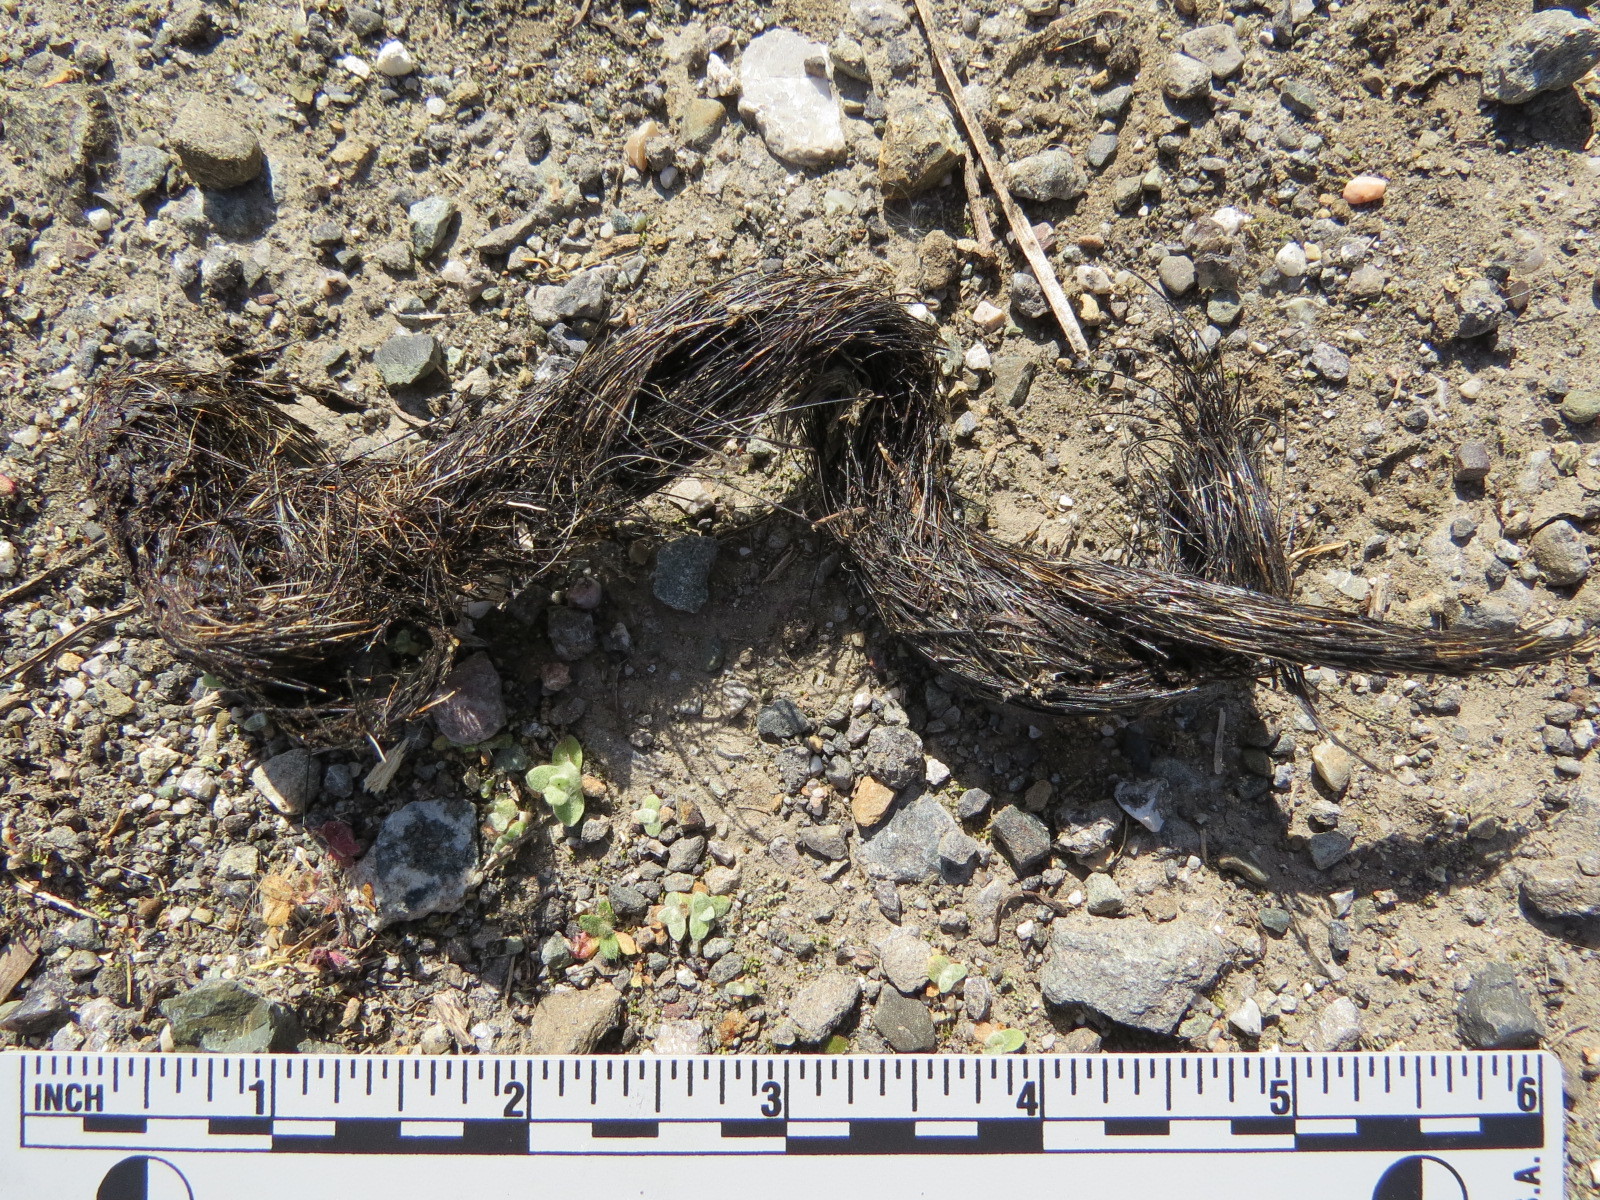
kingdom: Animalia
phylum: Chordata
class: Mammalia
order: Carnivora
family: Canidae
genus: Canis
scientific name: Canis latrans
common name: Coyote
